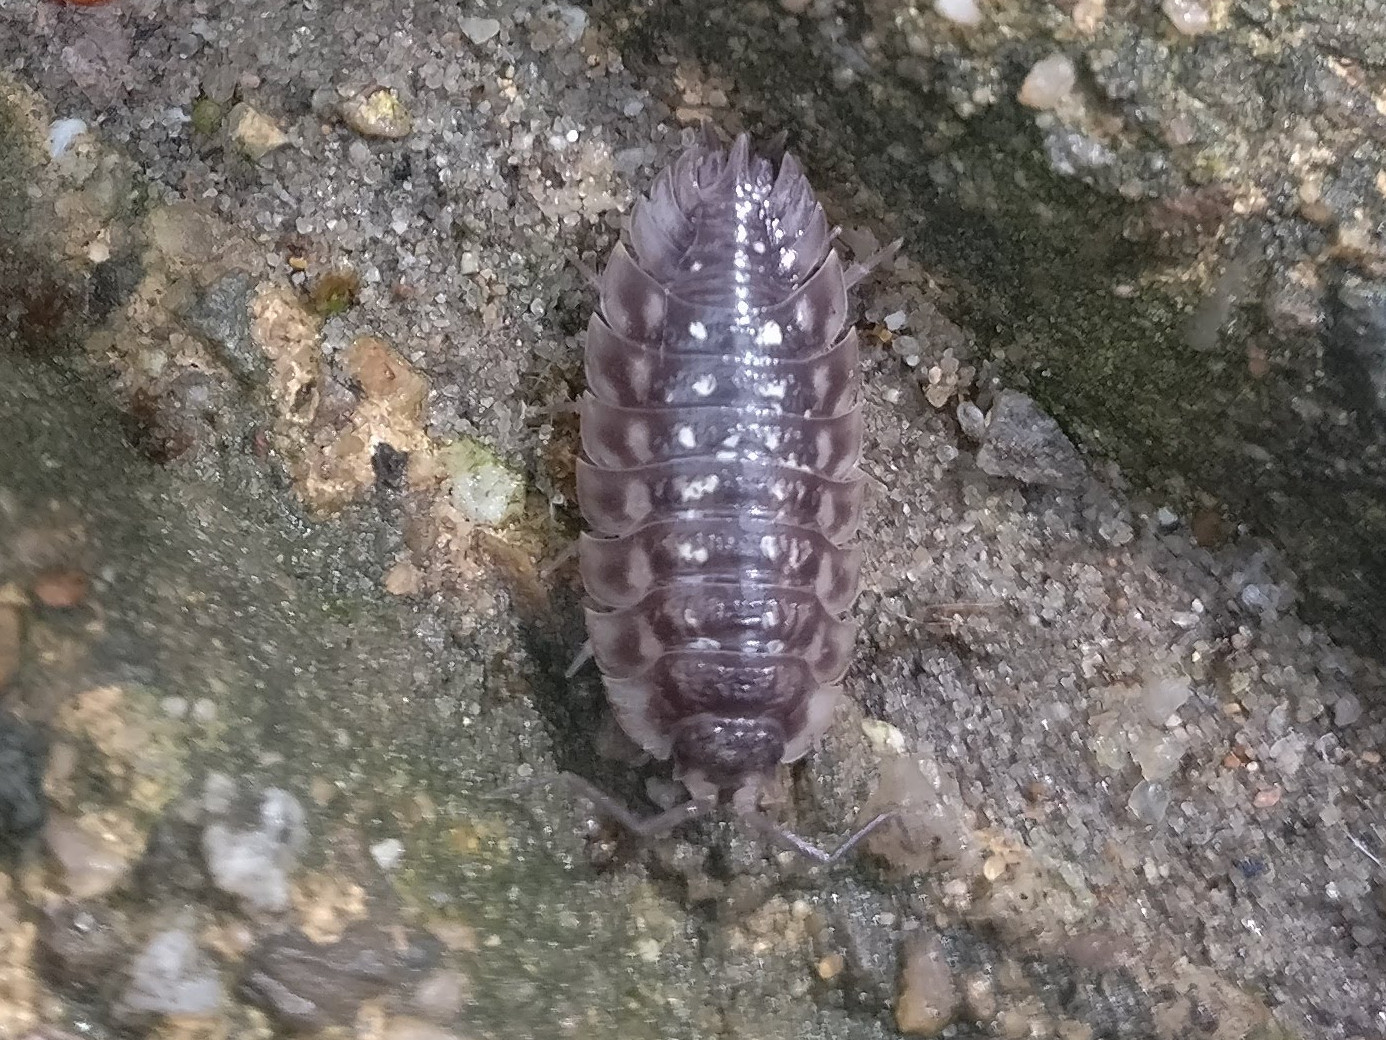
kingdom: Animalia
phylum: Arthropoda
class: Malacostraca
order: Isopoda
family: Oniscidae
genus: Oniscus
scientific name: Oniscus asellus
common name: Common shiny woodlouse
